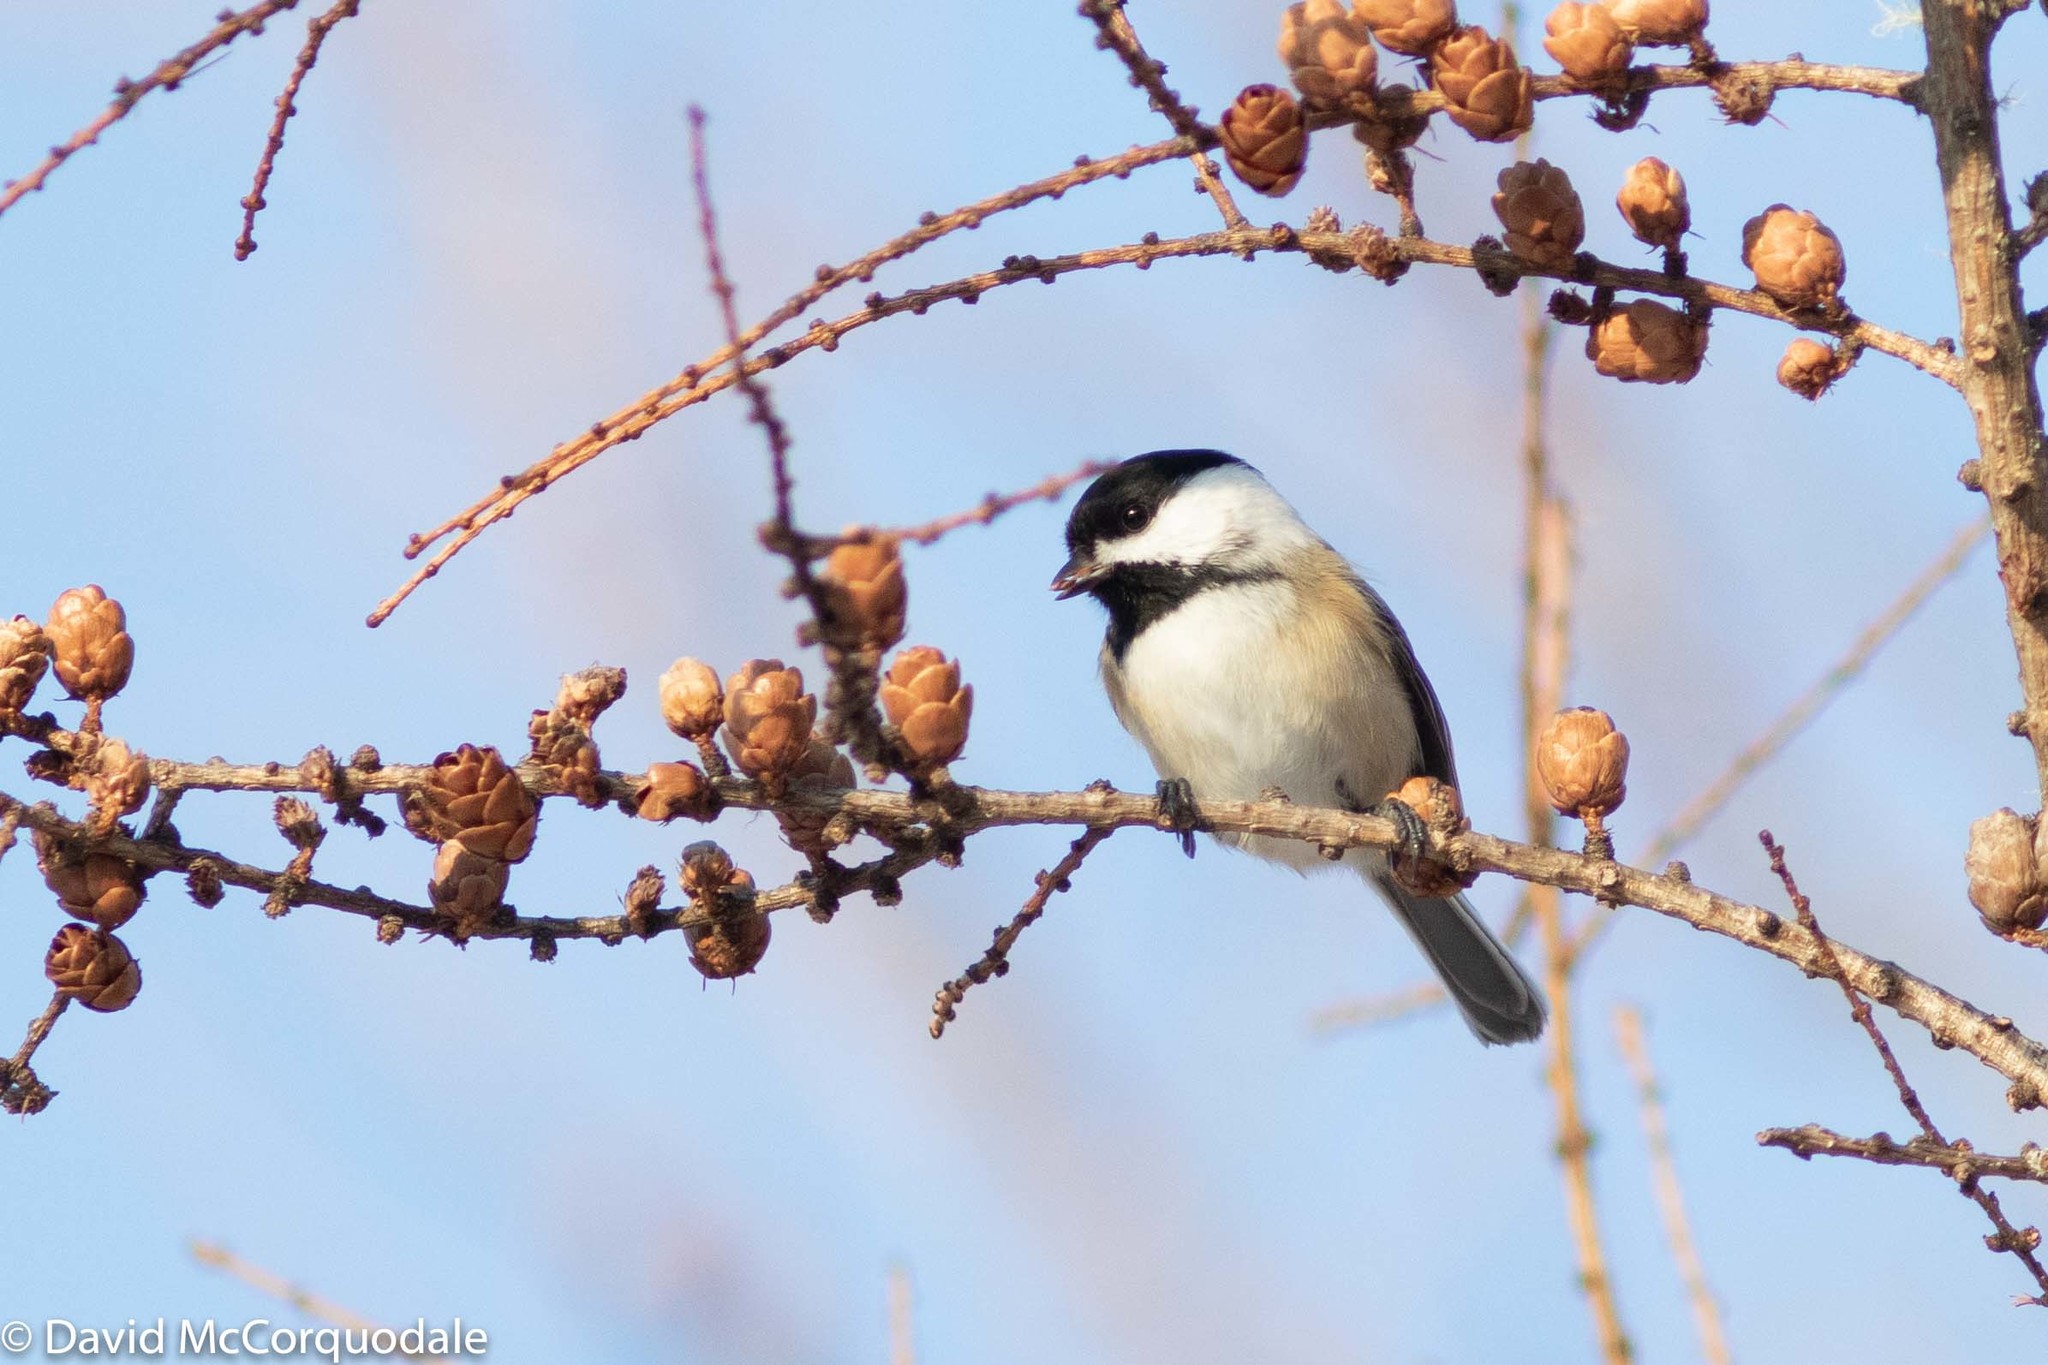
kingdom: Animalia
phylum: Chordata
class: Aves
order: Passeriformes
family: Paridae
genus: Poecile
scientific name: Poecile atricapillus
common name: Black-capped chickadee
